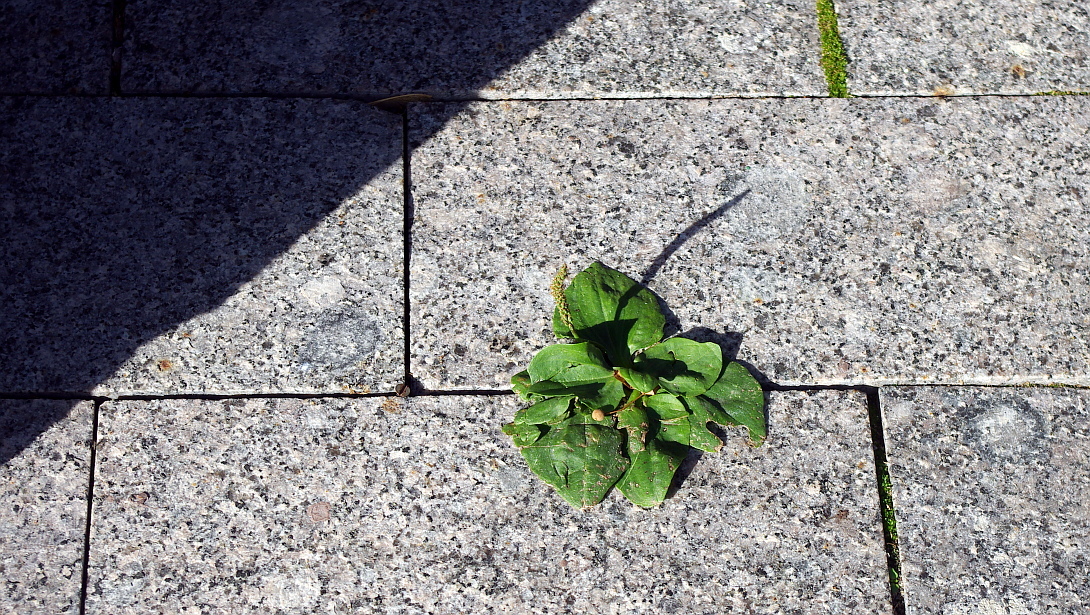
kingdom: Plantae
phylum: Tracheophyta
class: Magnoliopsida
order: Lamiales
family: Plantaginaceae
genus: Plantago
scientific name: Plantago major
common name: Common plantain
